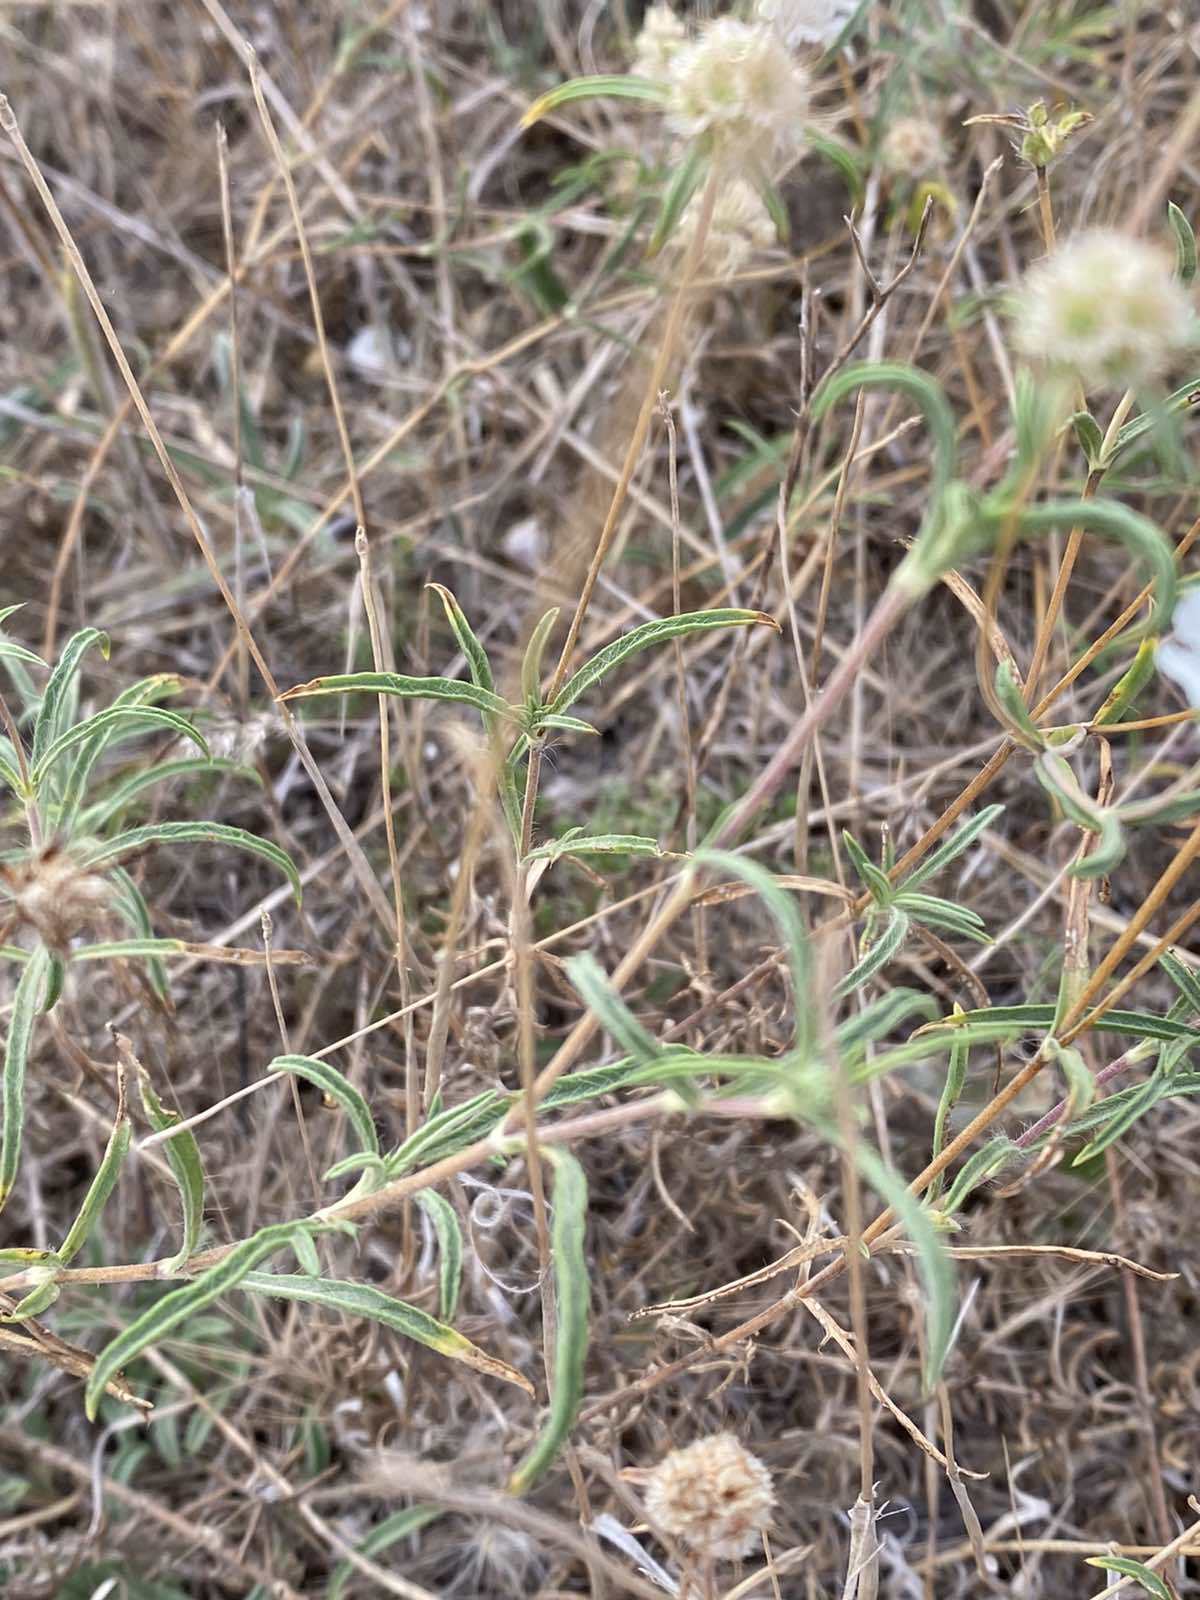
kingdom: Plantae
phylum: Tracheophyta
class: Magnoliopsida
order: Dipsacales
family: Caprifoliaceae
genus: Lomelosia
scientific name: Lomelosia argentea
